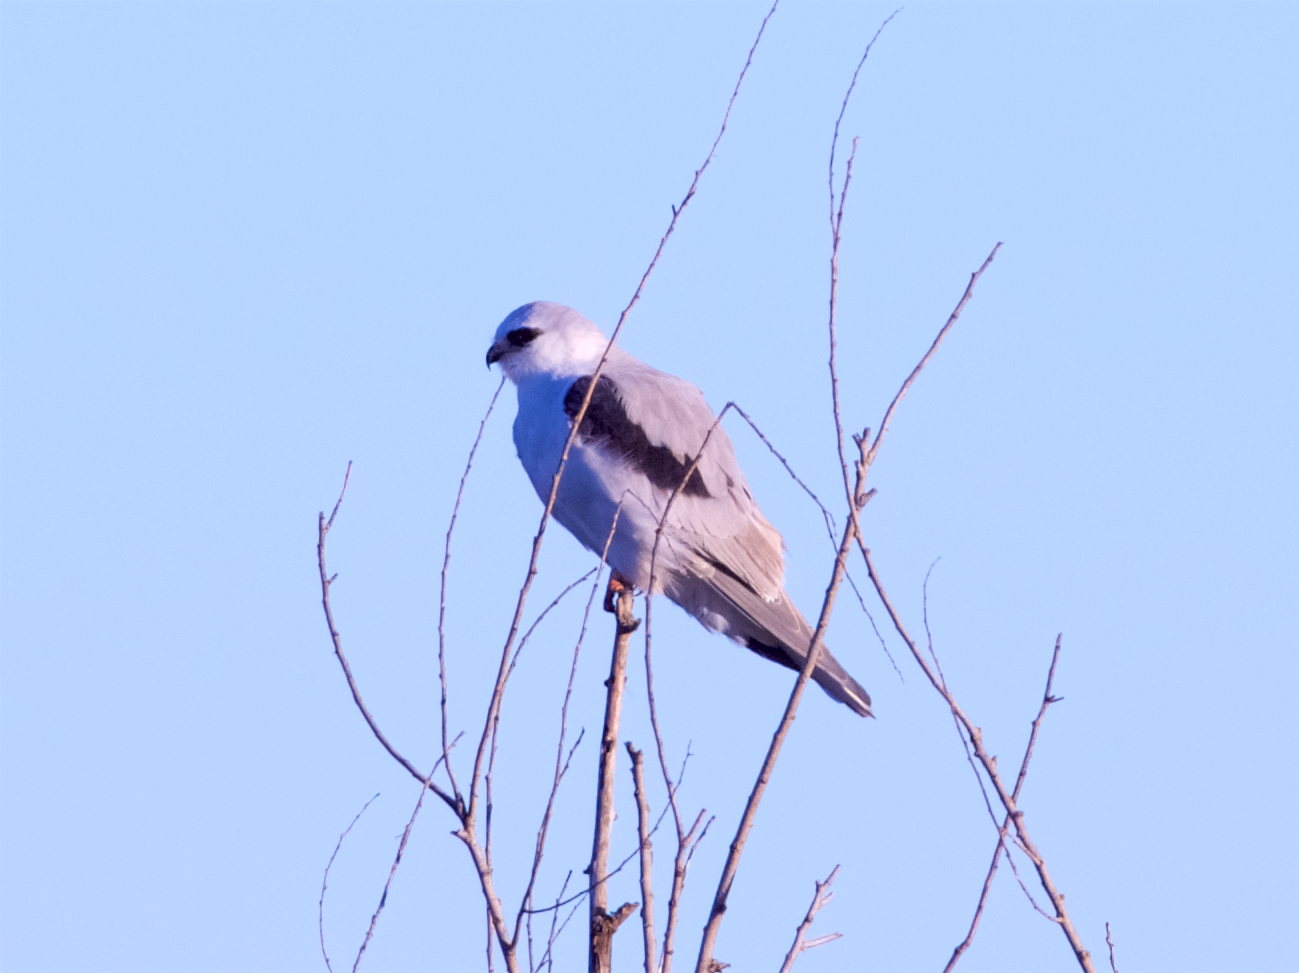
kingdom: Animalia
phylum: Chordata
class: Aves
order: Accipitriformes
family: Accipitridae
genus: Elanus
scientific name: Elanus leucurus
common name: White-tailed kite
